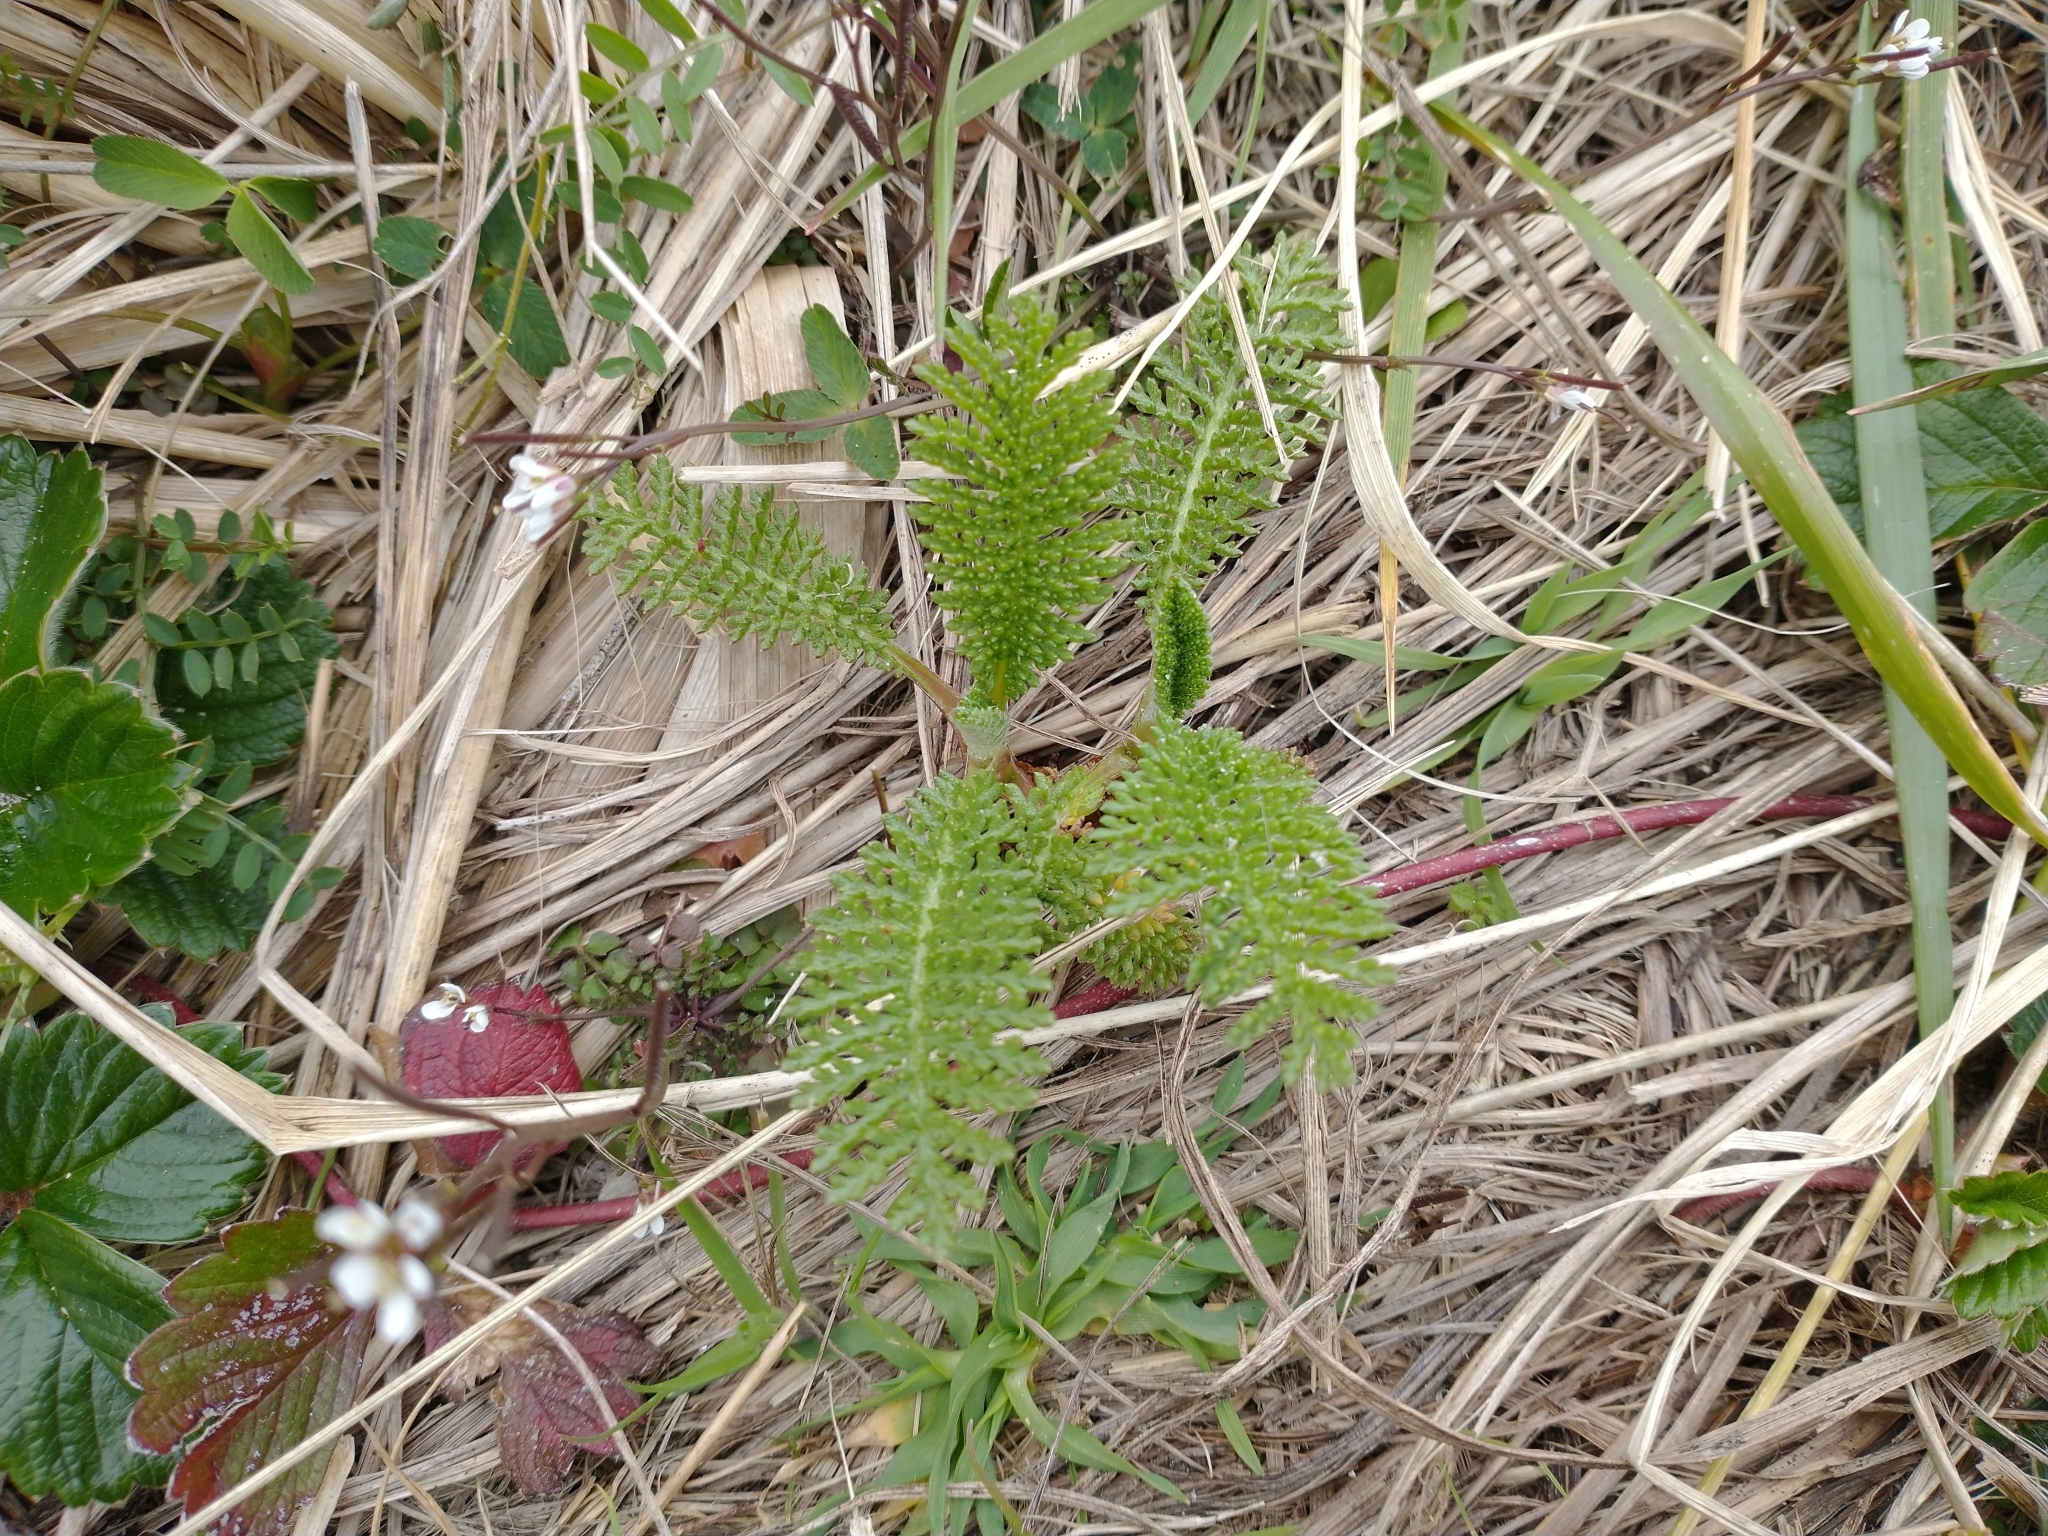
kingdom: Plantae
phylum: Tracheophyta
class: Magnoliopsida
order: Asterales
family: Asteraceae
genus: Tanacetum
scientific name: Tanacetum bipinnatum
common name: Dwarf tansy
